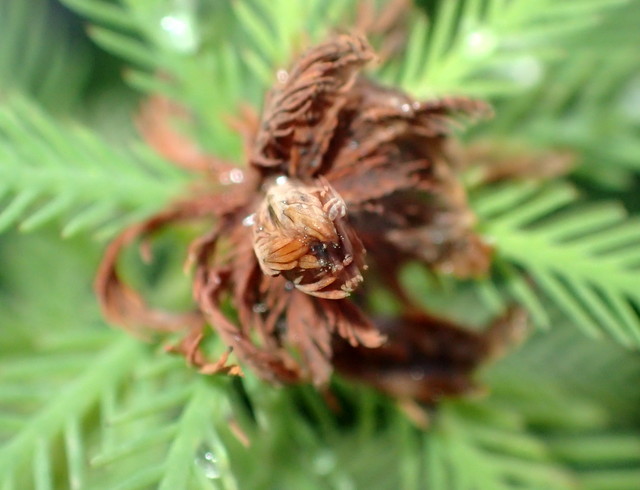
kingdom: Plantae
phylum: Tracheophyta
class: Magnoliopsida
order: Saxifragales
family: Haloragaceae
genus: Myriophyllum
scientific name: Myriophyllum aquaticum
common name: Parrot's feather
